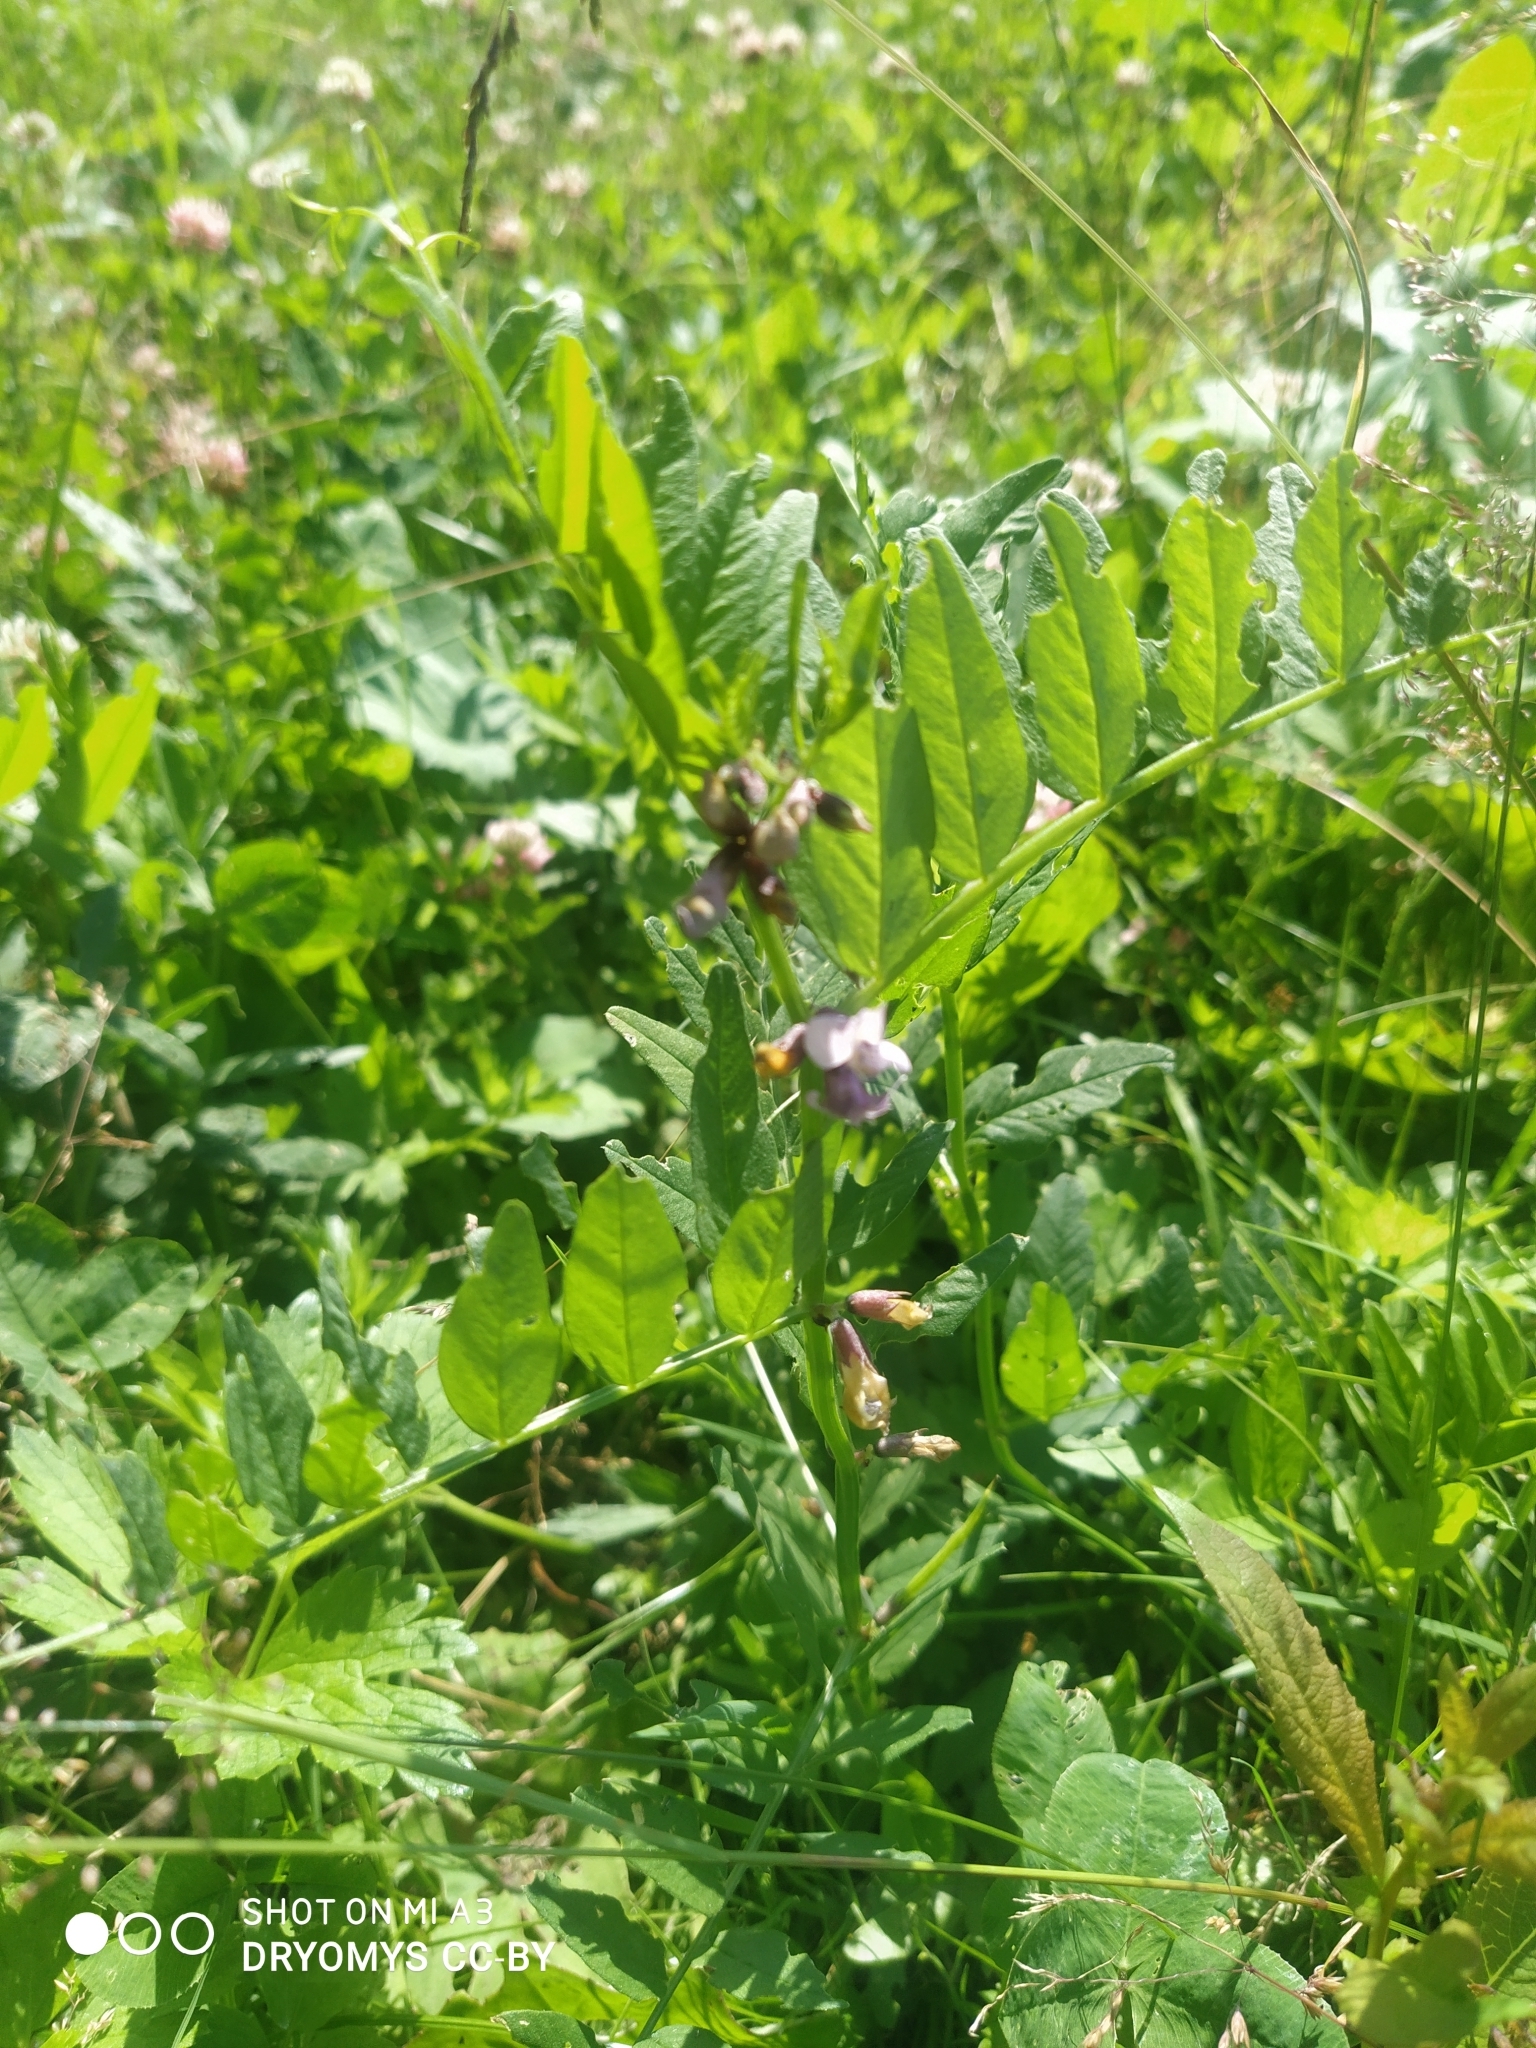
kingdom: Plantae
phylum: Tracheophyta
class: Magnoliopsida
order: Fabales
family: Fabaceae
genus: Vicia
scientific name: Vicia sepium
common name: Bush vetch
